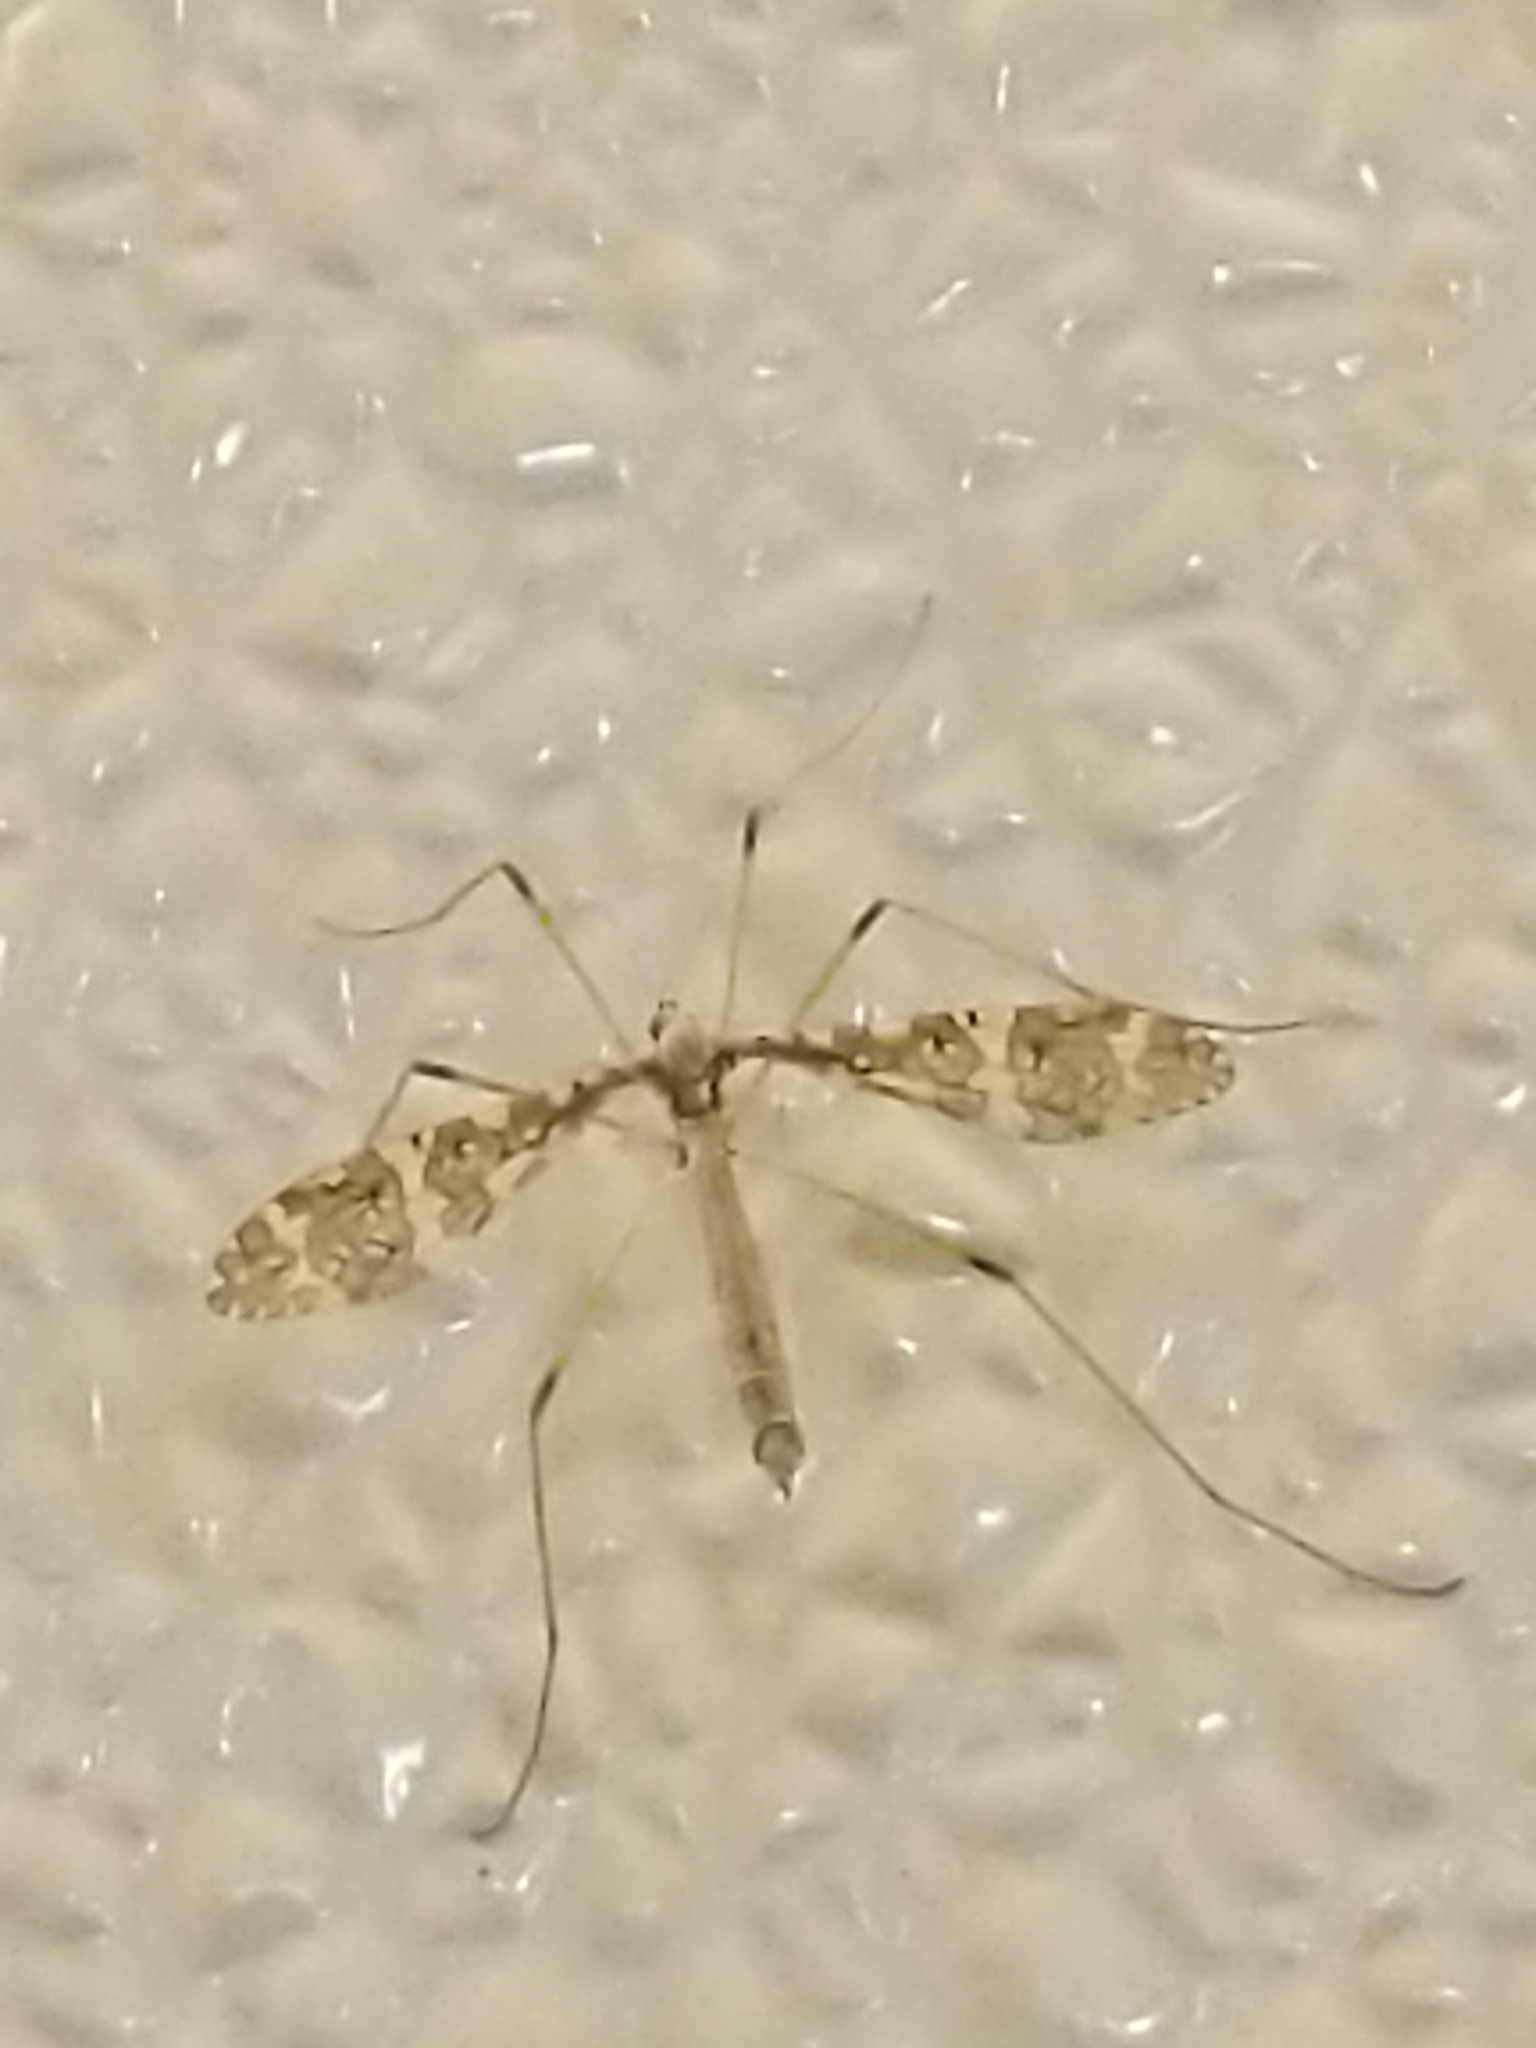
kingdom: Animalia
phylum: Arthropoda
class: Insecta
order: Diptera
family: Limoniidae
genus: Epiphragma
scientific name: Epiphragma fasciapenne
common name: Band-winged crane fly
